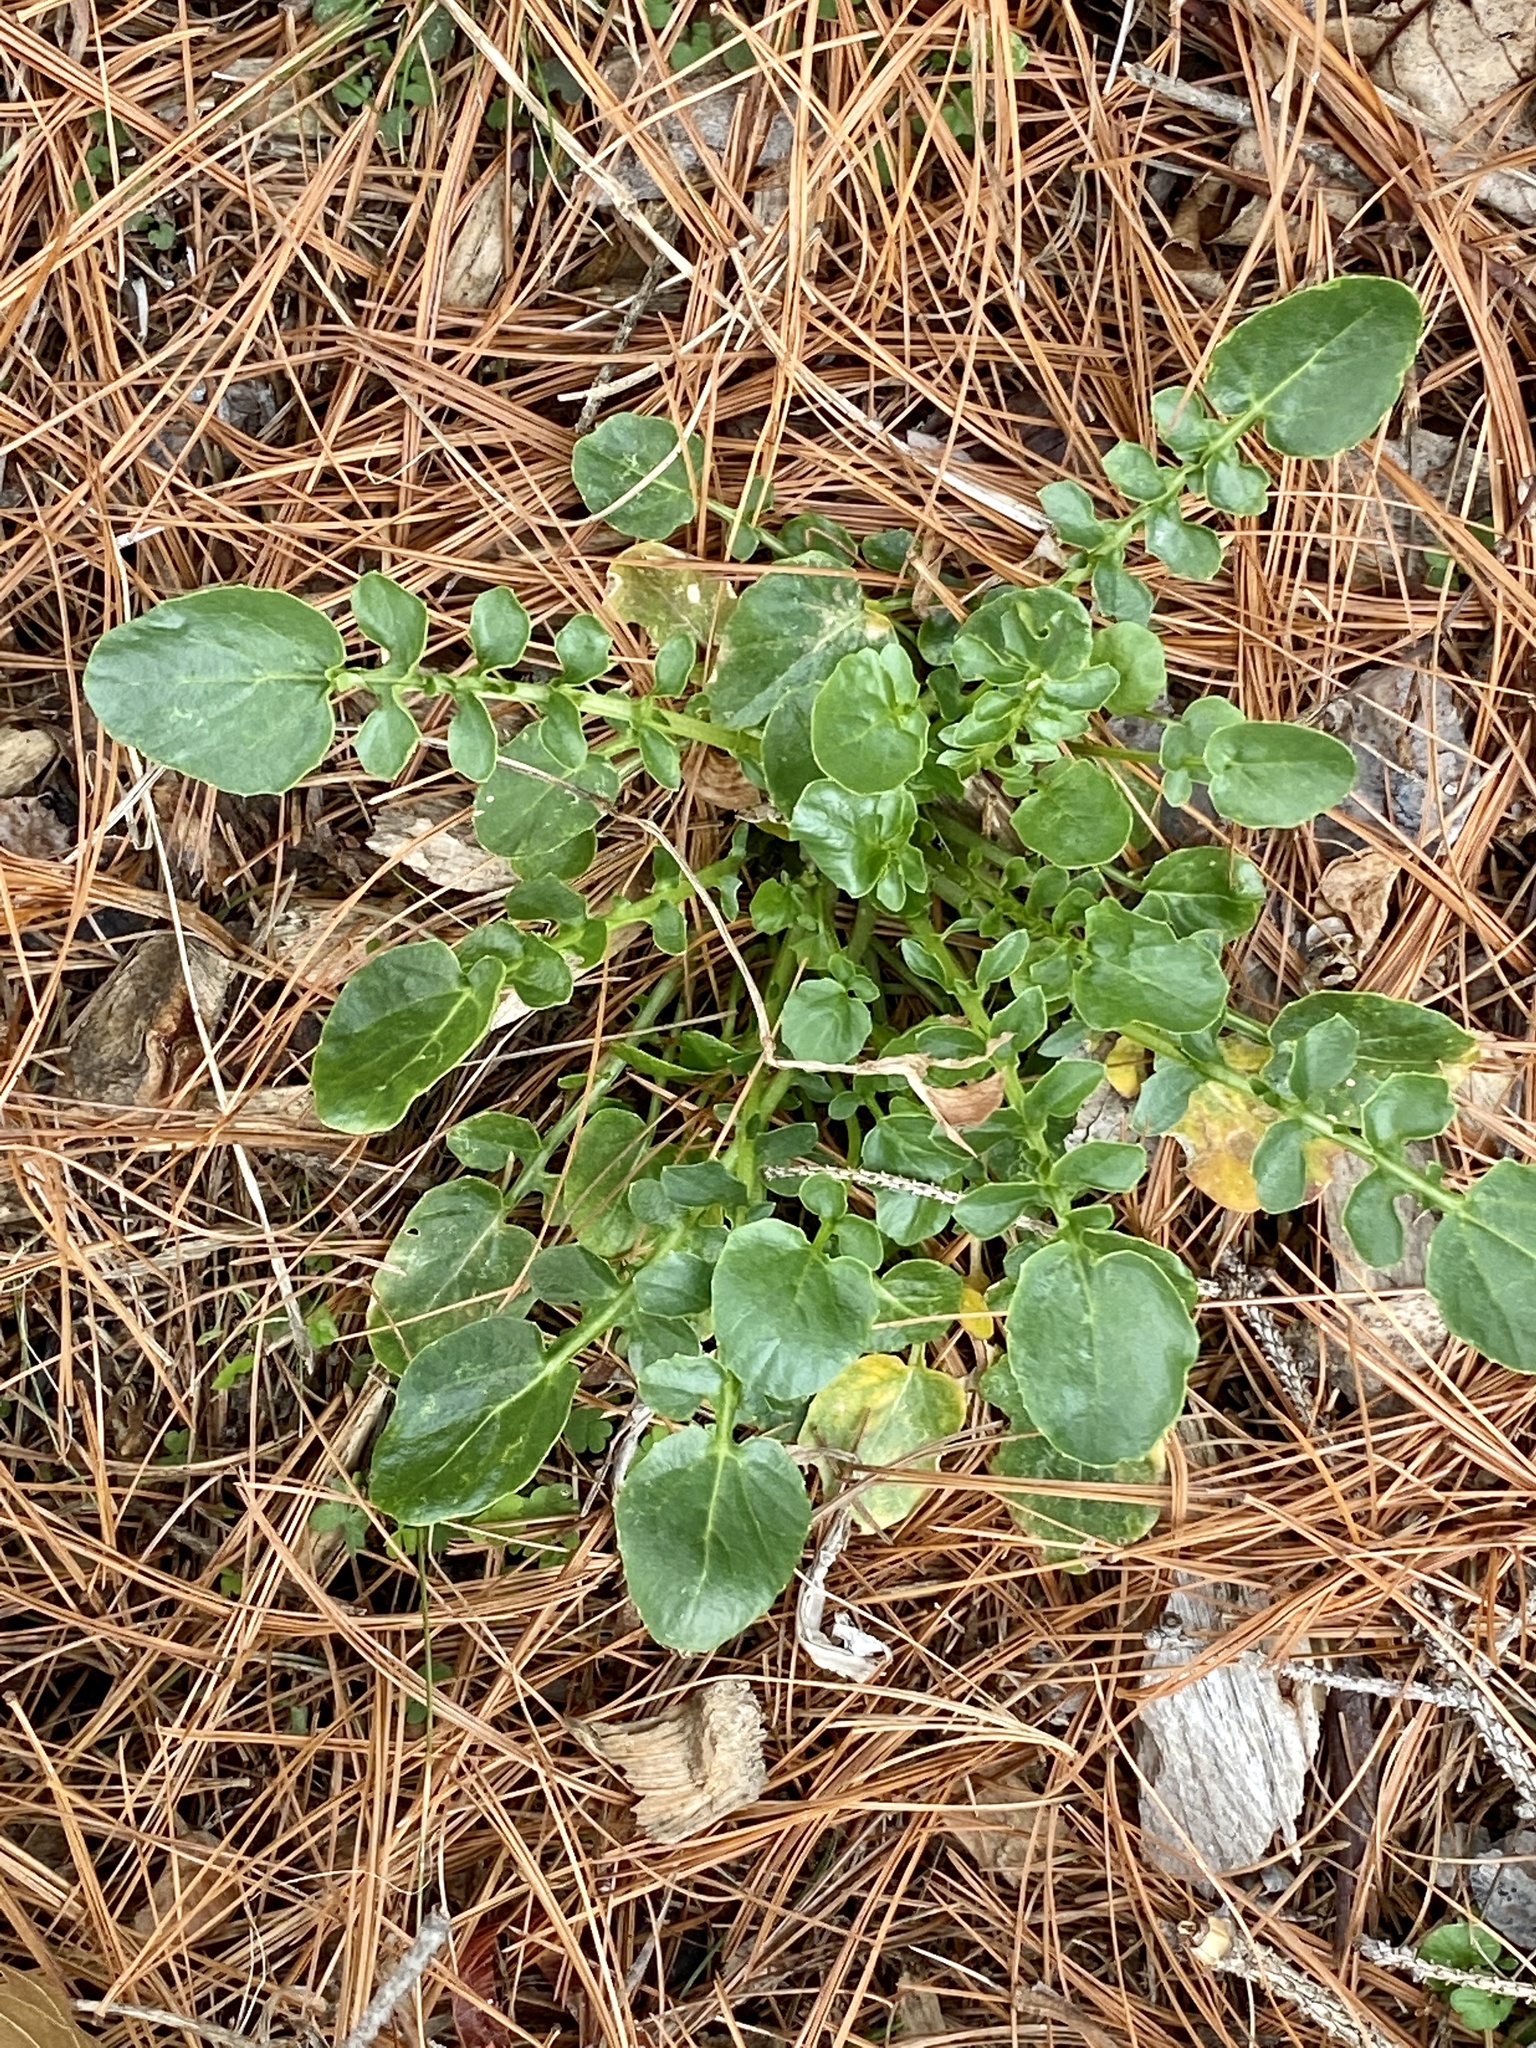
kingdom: Plantae
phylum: Tracheophyta
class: Magnoliopsida
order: Brassicales
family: Brassicaceae
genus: Barbarea
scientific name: Barbarea vulgaris
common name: Cressy-greens
